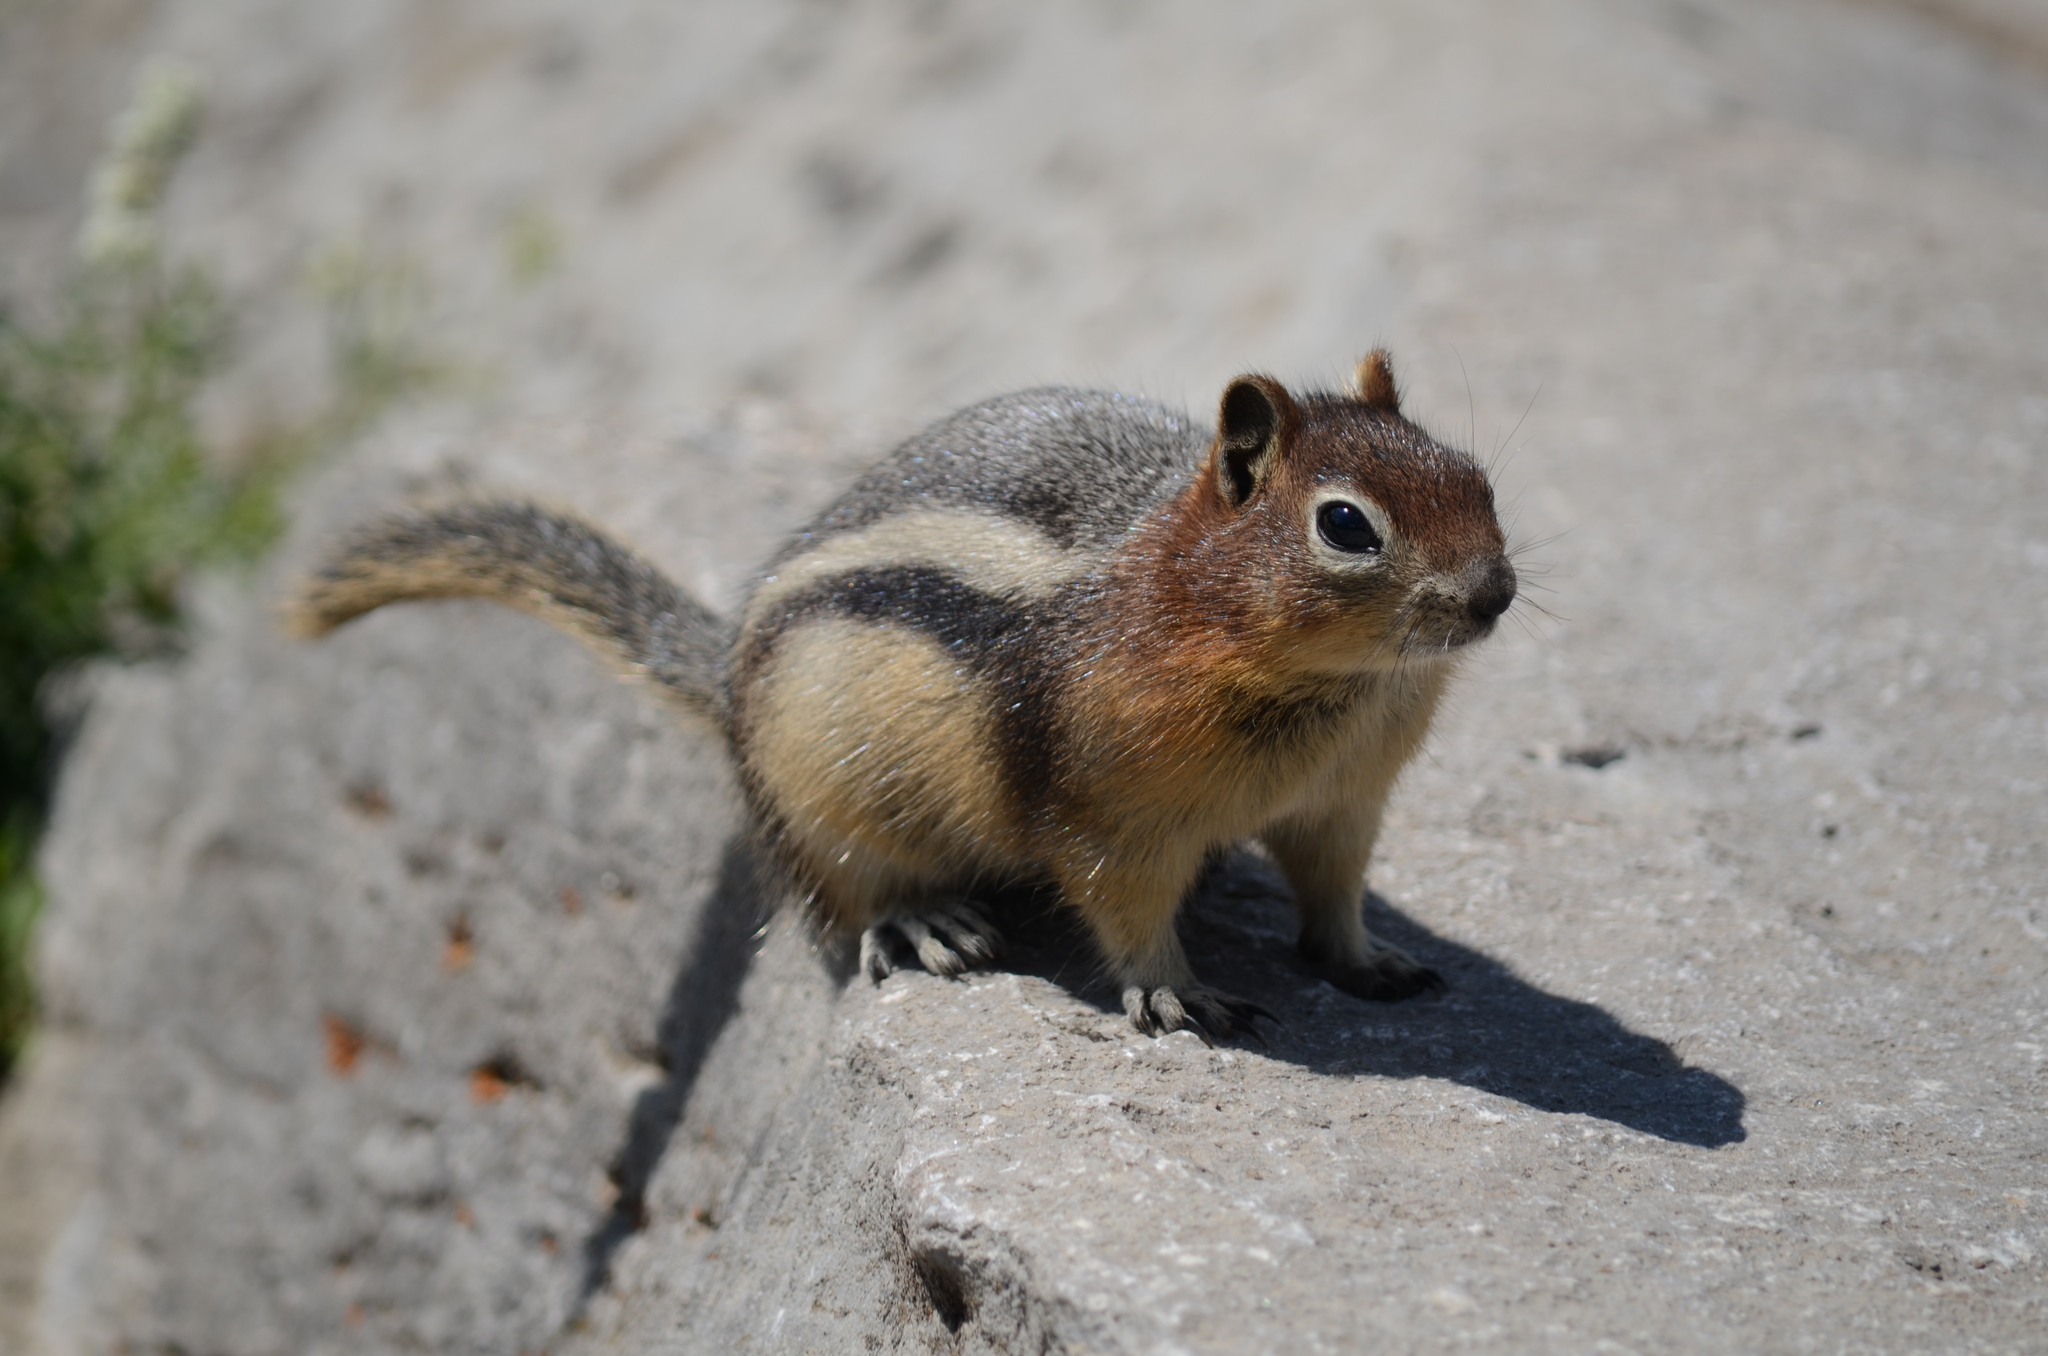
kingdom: Animalia
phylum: Chordata
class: Mammalia
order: Rodentia
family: Sciuridae
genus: Callospermophilus
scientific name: Callospermophilus lateralis
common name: Golden-mantled ground squirrel
